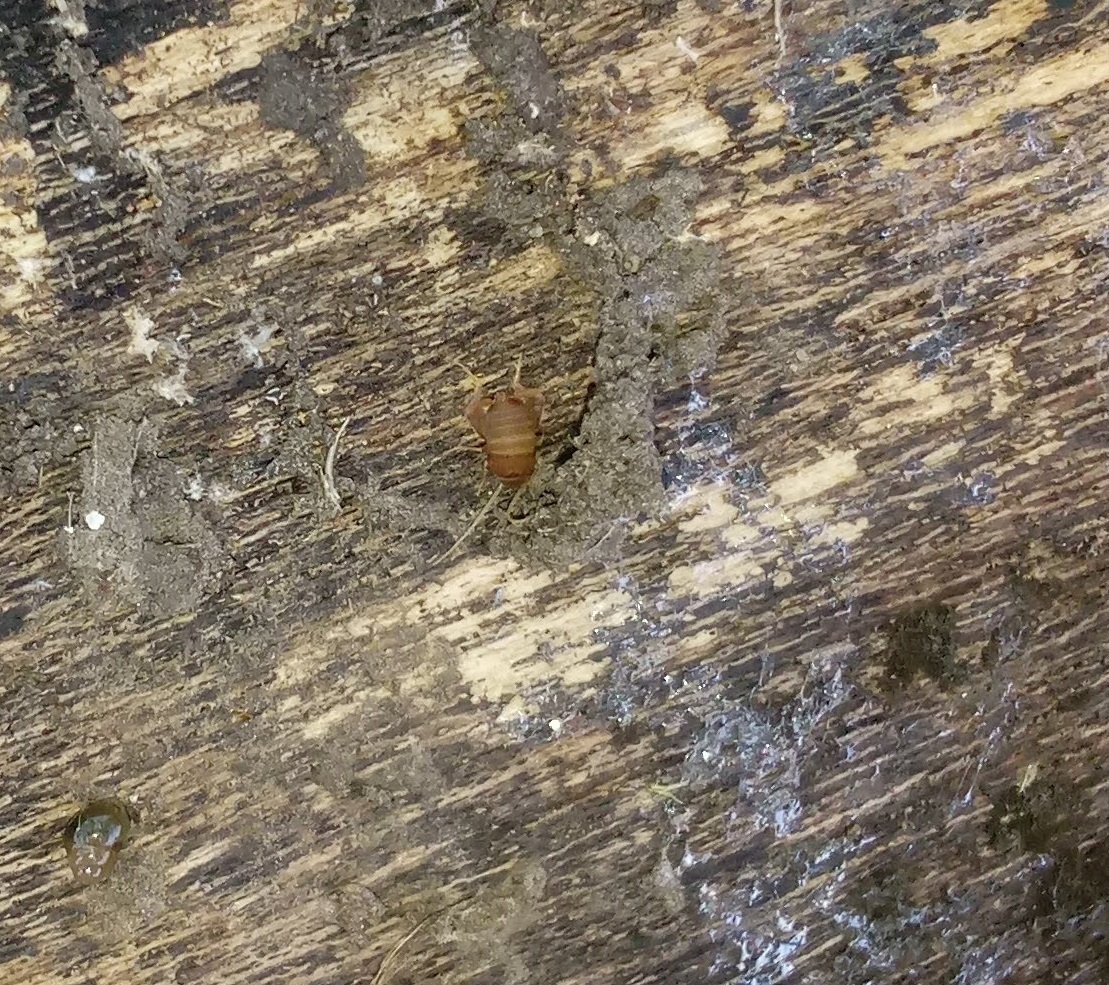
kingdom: Animalia
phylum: Arthropoda
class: Insecta
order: Orthoptera
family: Myrmecophilidae
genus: Myrmecophilus
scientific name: Myrmecophilus pergandei
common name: Eastern ant cricket
